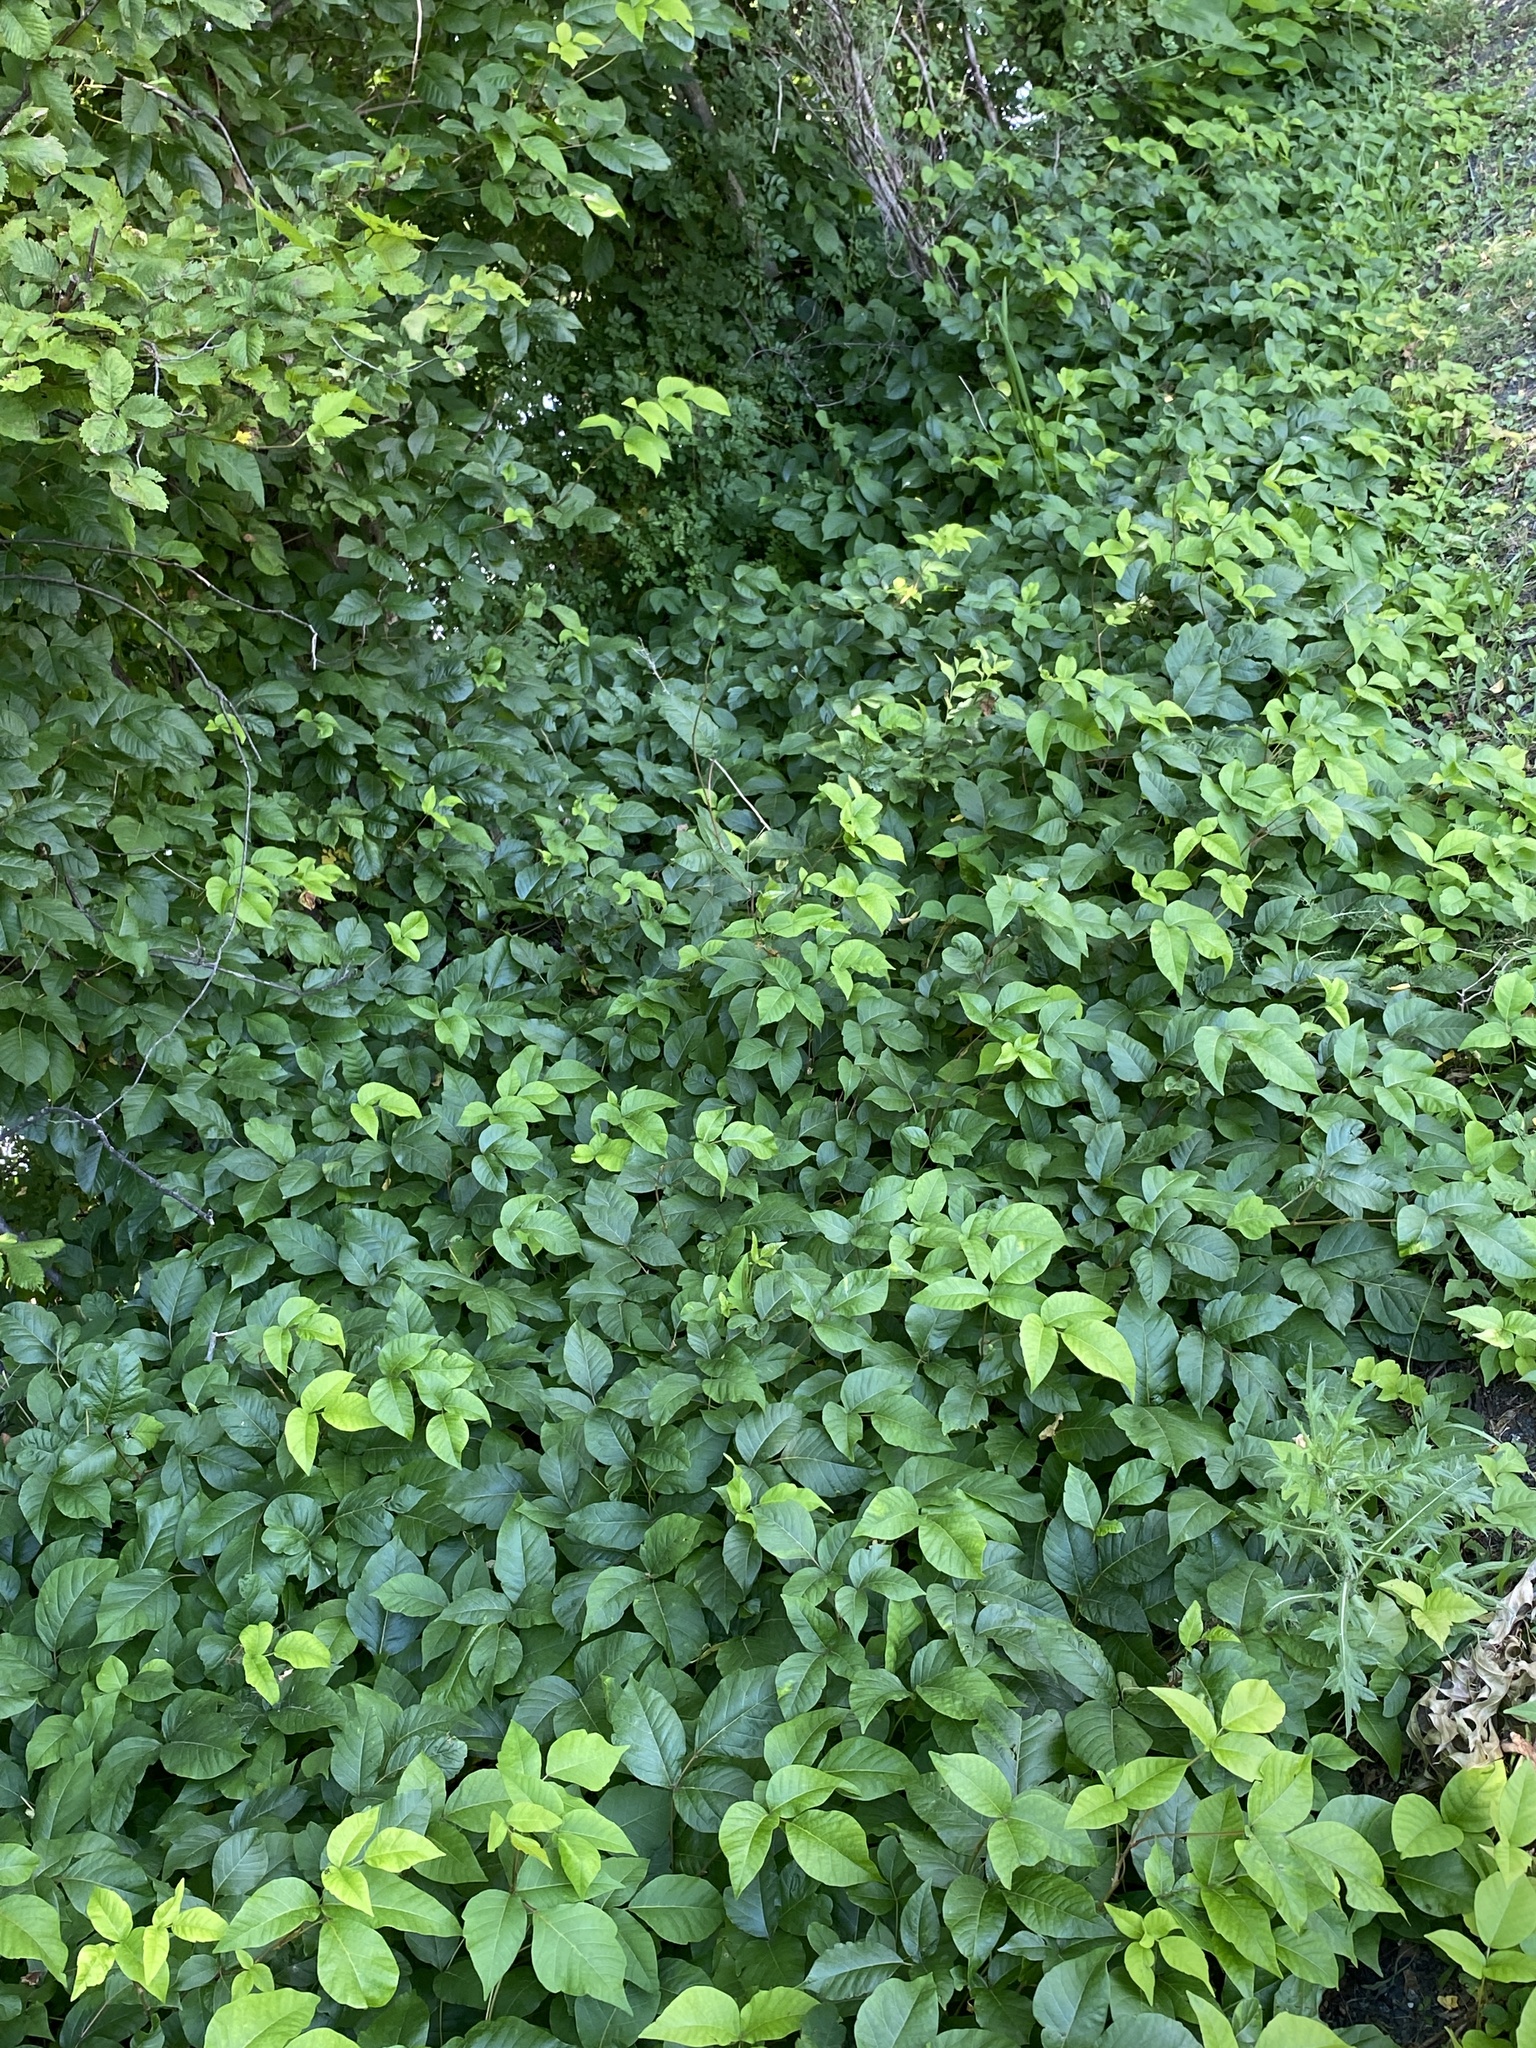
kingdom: Plantae
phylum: Tracheophyta
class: Magnoliopsida
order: Sapindales
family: Anacardiaceae
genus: Toxicodendron
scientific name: Toxicodendron radicans
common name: Poison ivy
